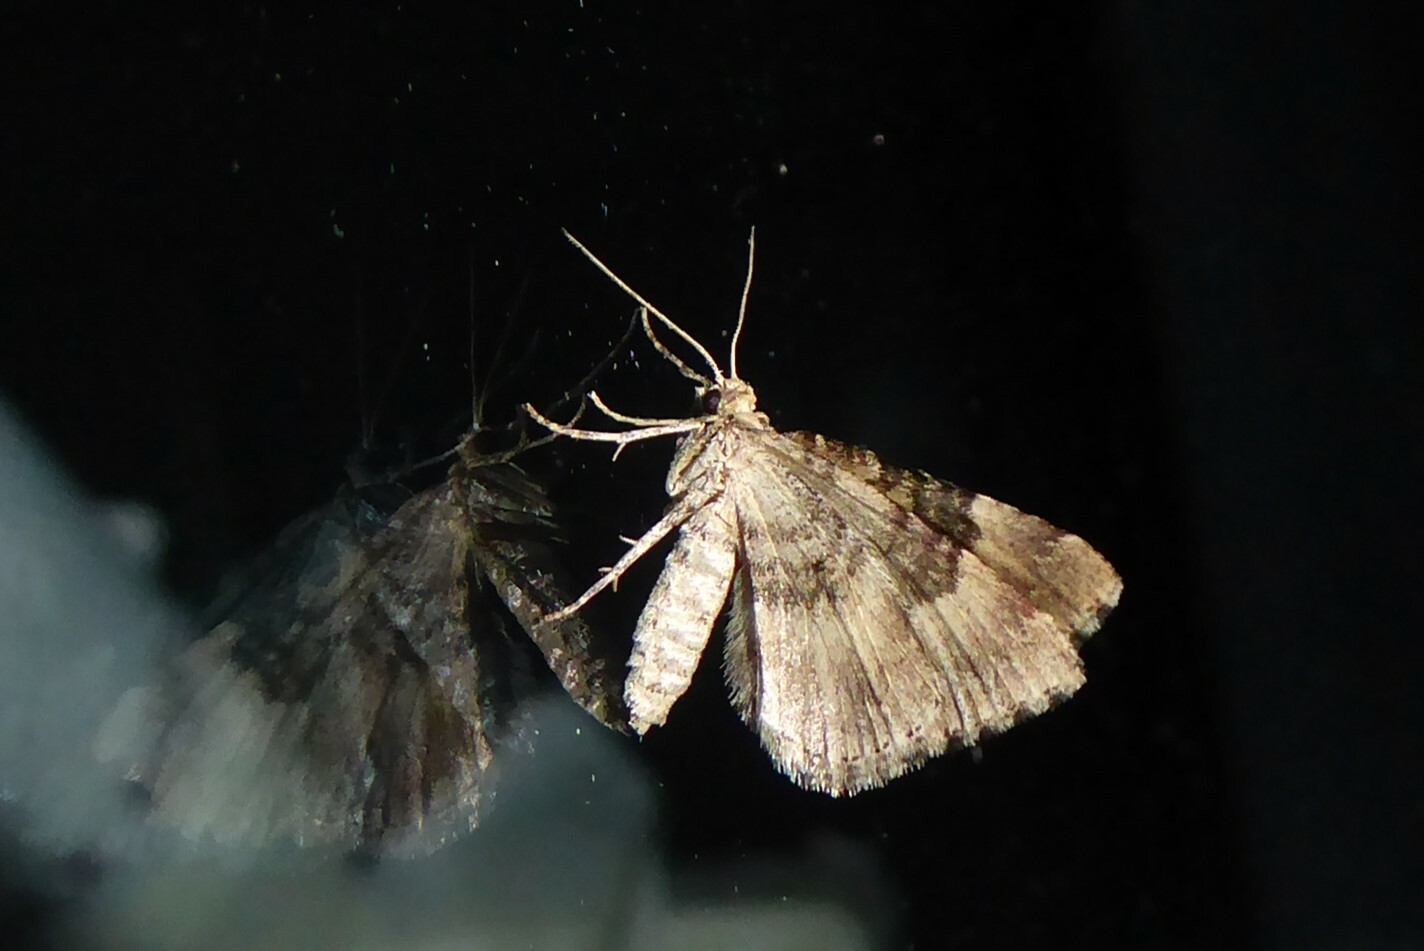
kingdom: Animalia
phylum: Arthropoda
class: Insecta
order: Lepidoptera
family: Geometridae
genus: Asaphodes
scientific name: Asaphodes aegrota
